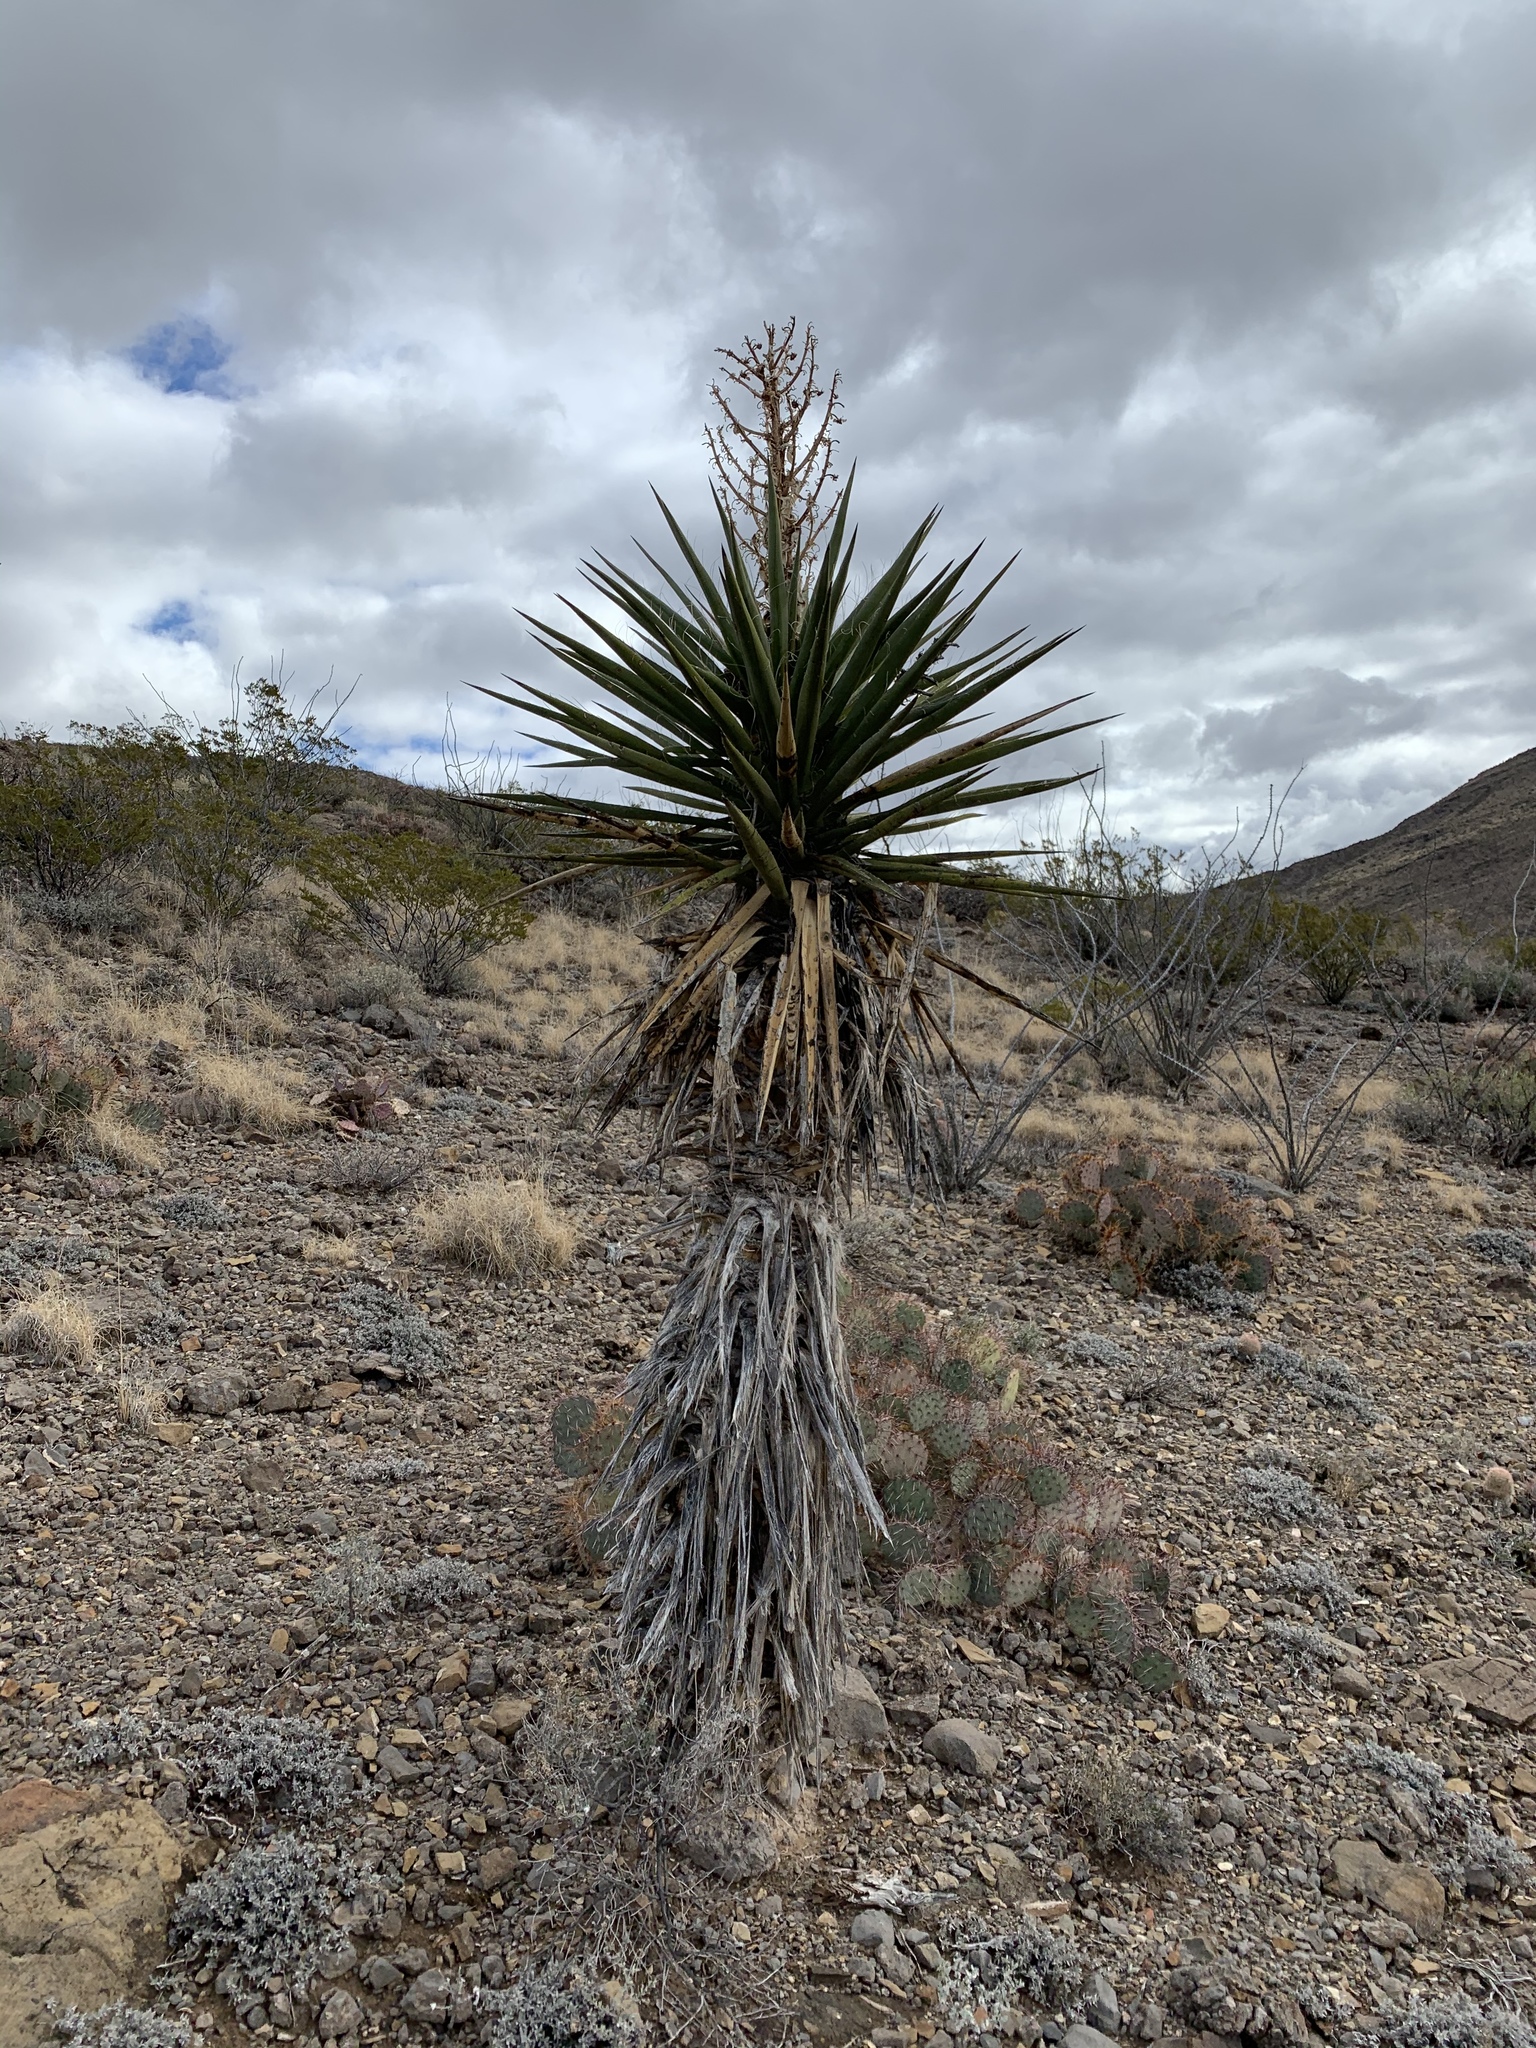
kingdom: Plantae
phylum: Tracheophyta
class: Liliopsida
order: Asparagales
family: Asparagaceae
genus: Yucca
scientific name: Yucca treculiana
